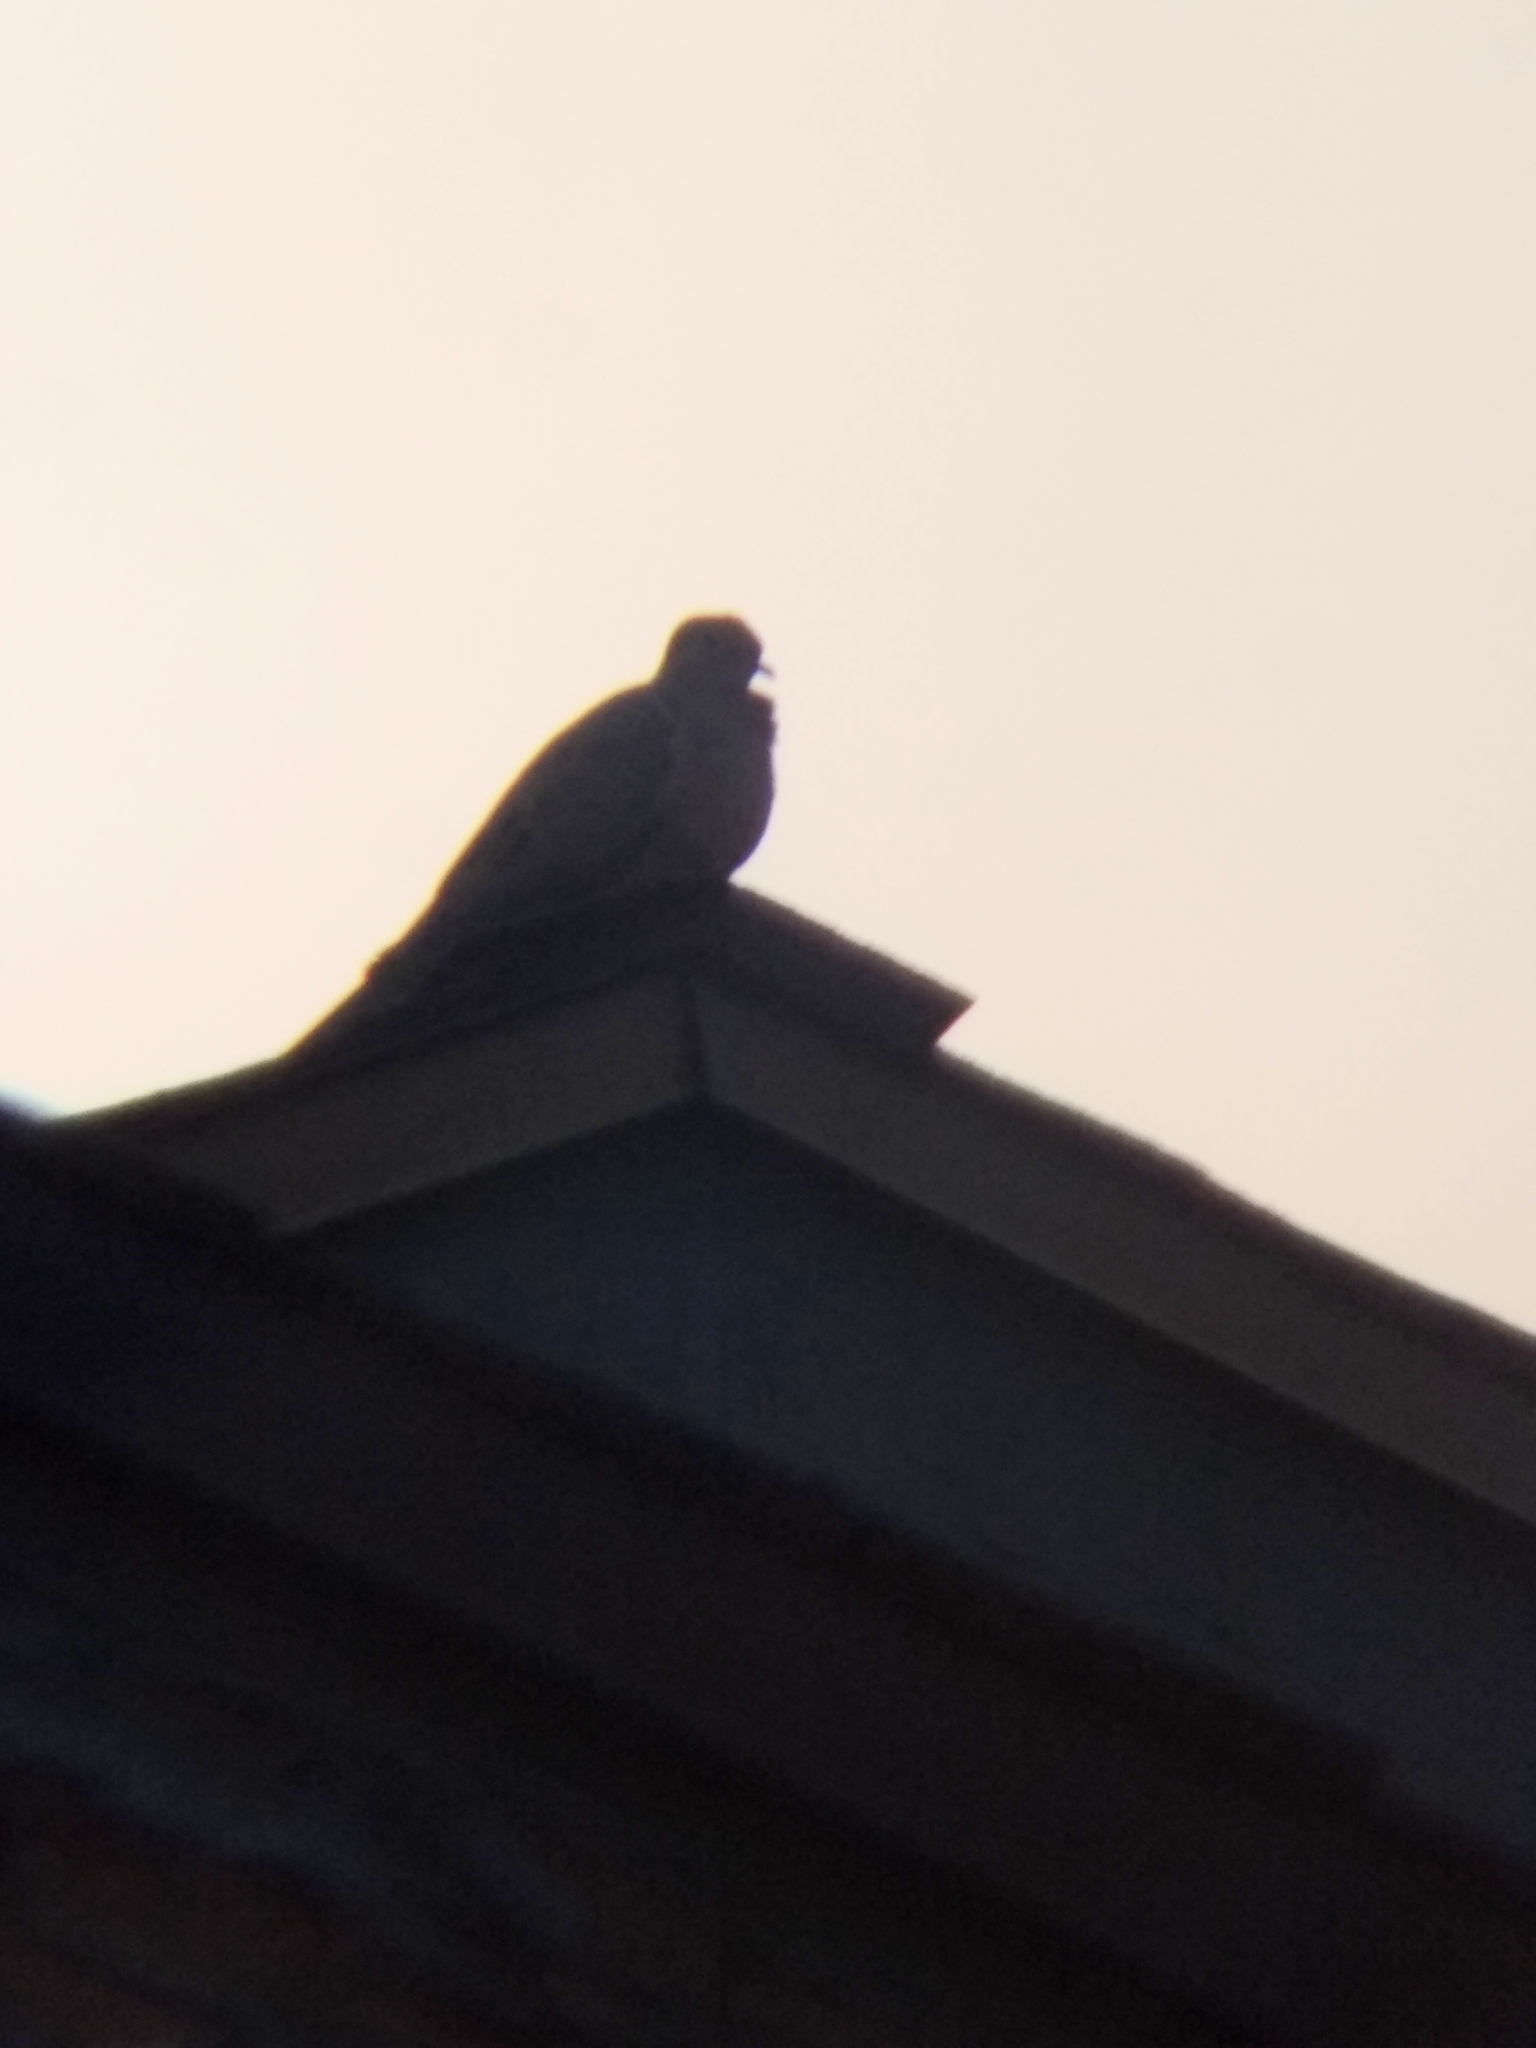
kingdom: Animalia
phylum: Chordata
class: Aves
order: Columbiformes
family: Columbidae
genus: Zenaida
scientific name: Zenaida macroura
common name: Mourning dove
